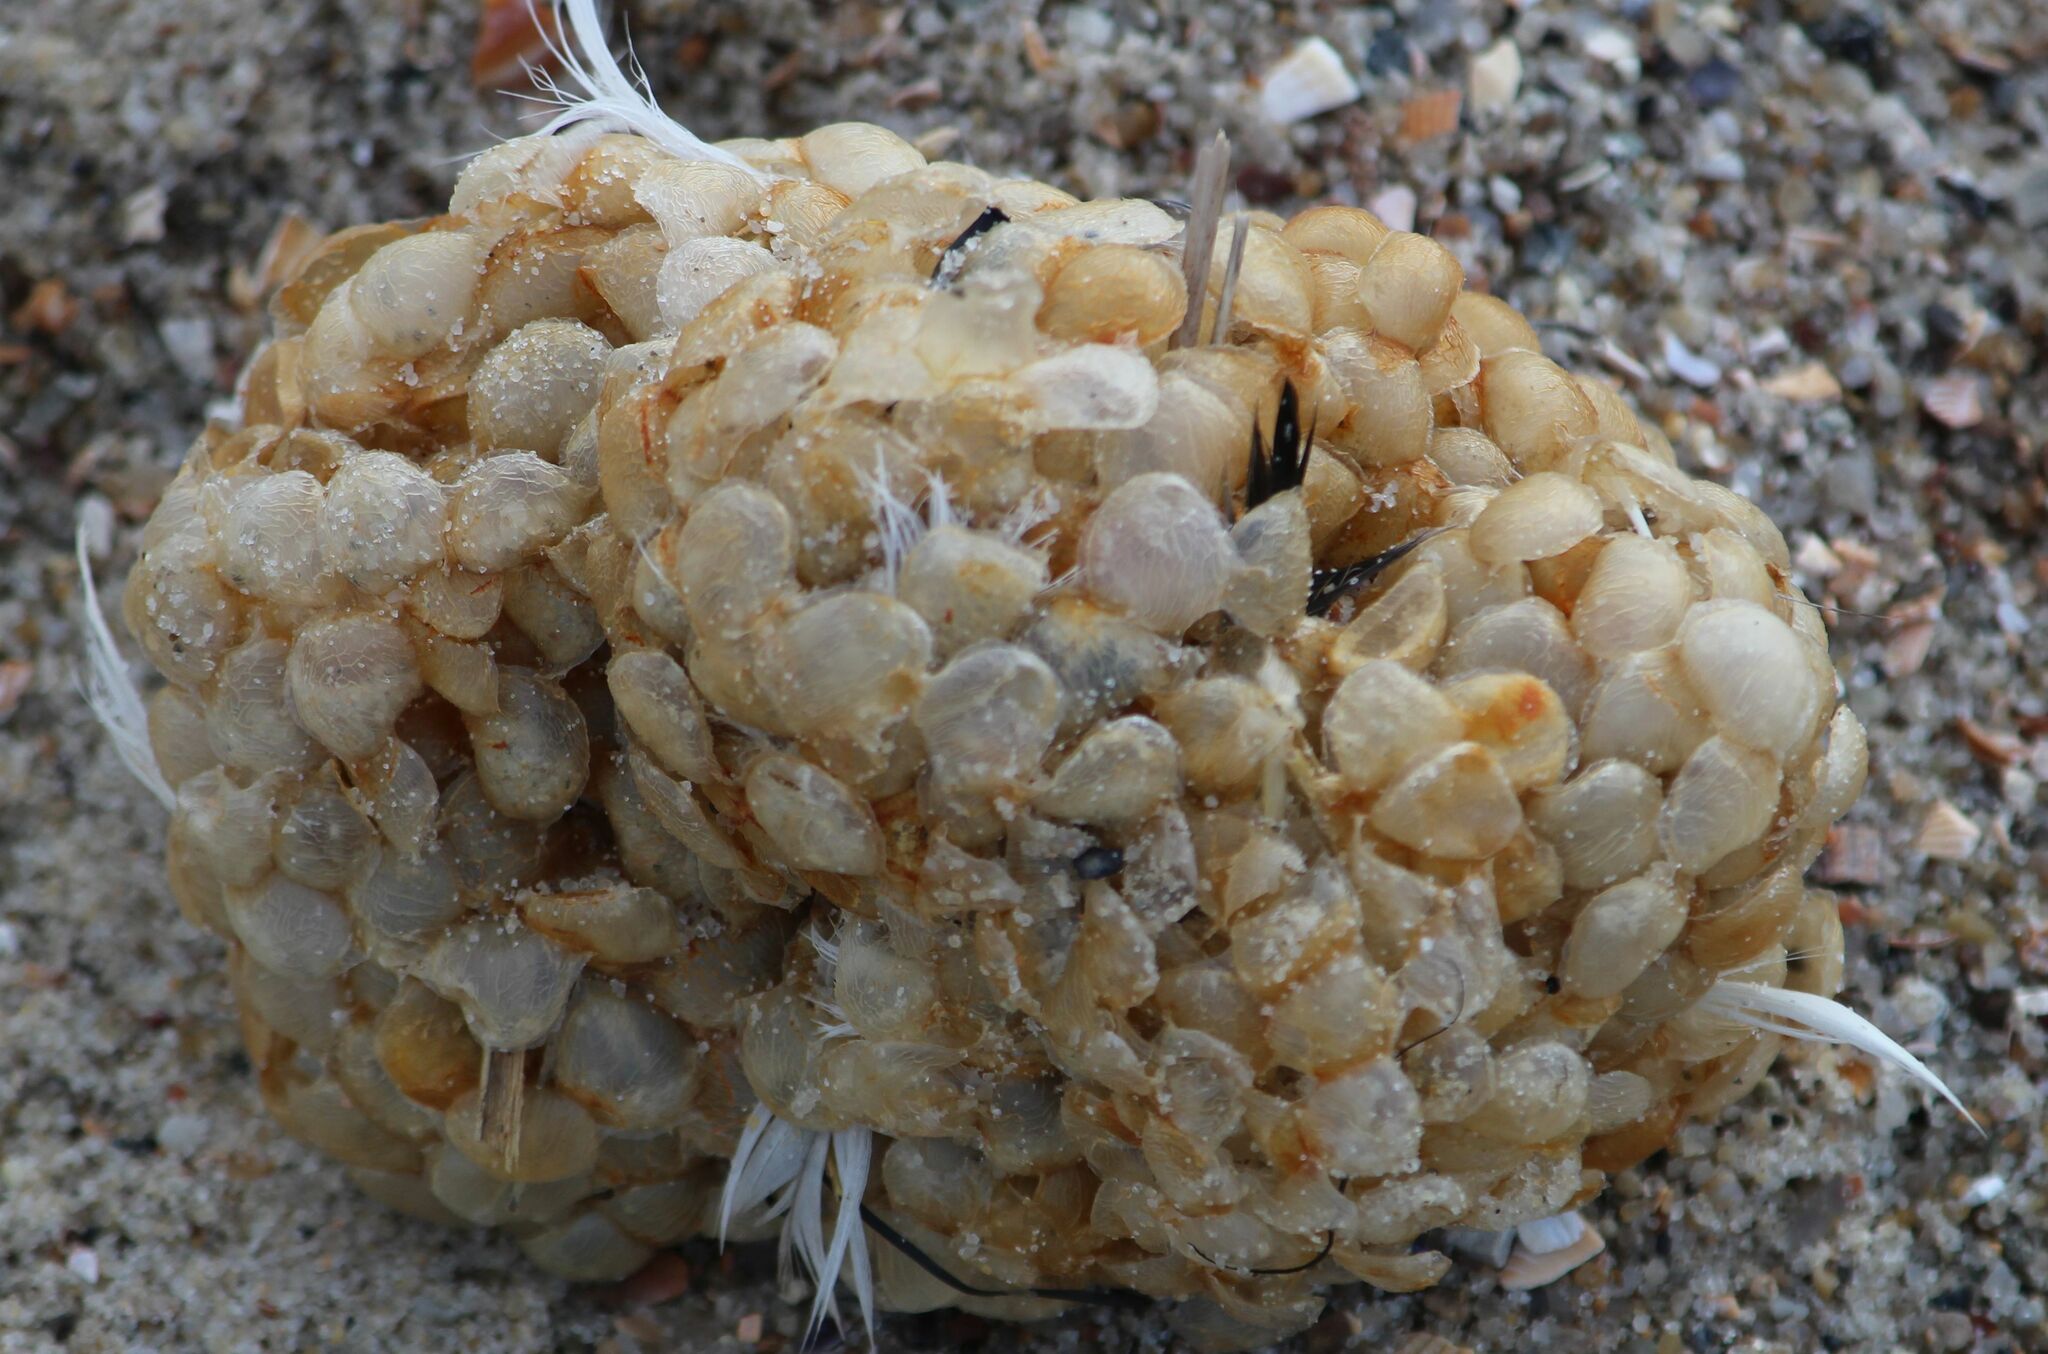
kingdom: Animalia
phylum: Mollusca
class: Gastropoda
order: Neogastropoda
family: Buccinidae
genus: Buccinum
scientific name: Buccinum undatum
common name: Common whelk
